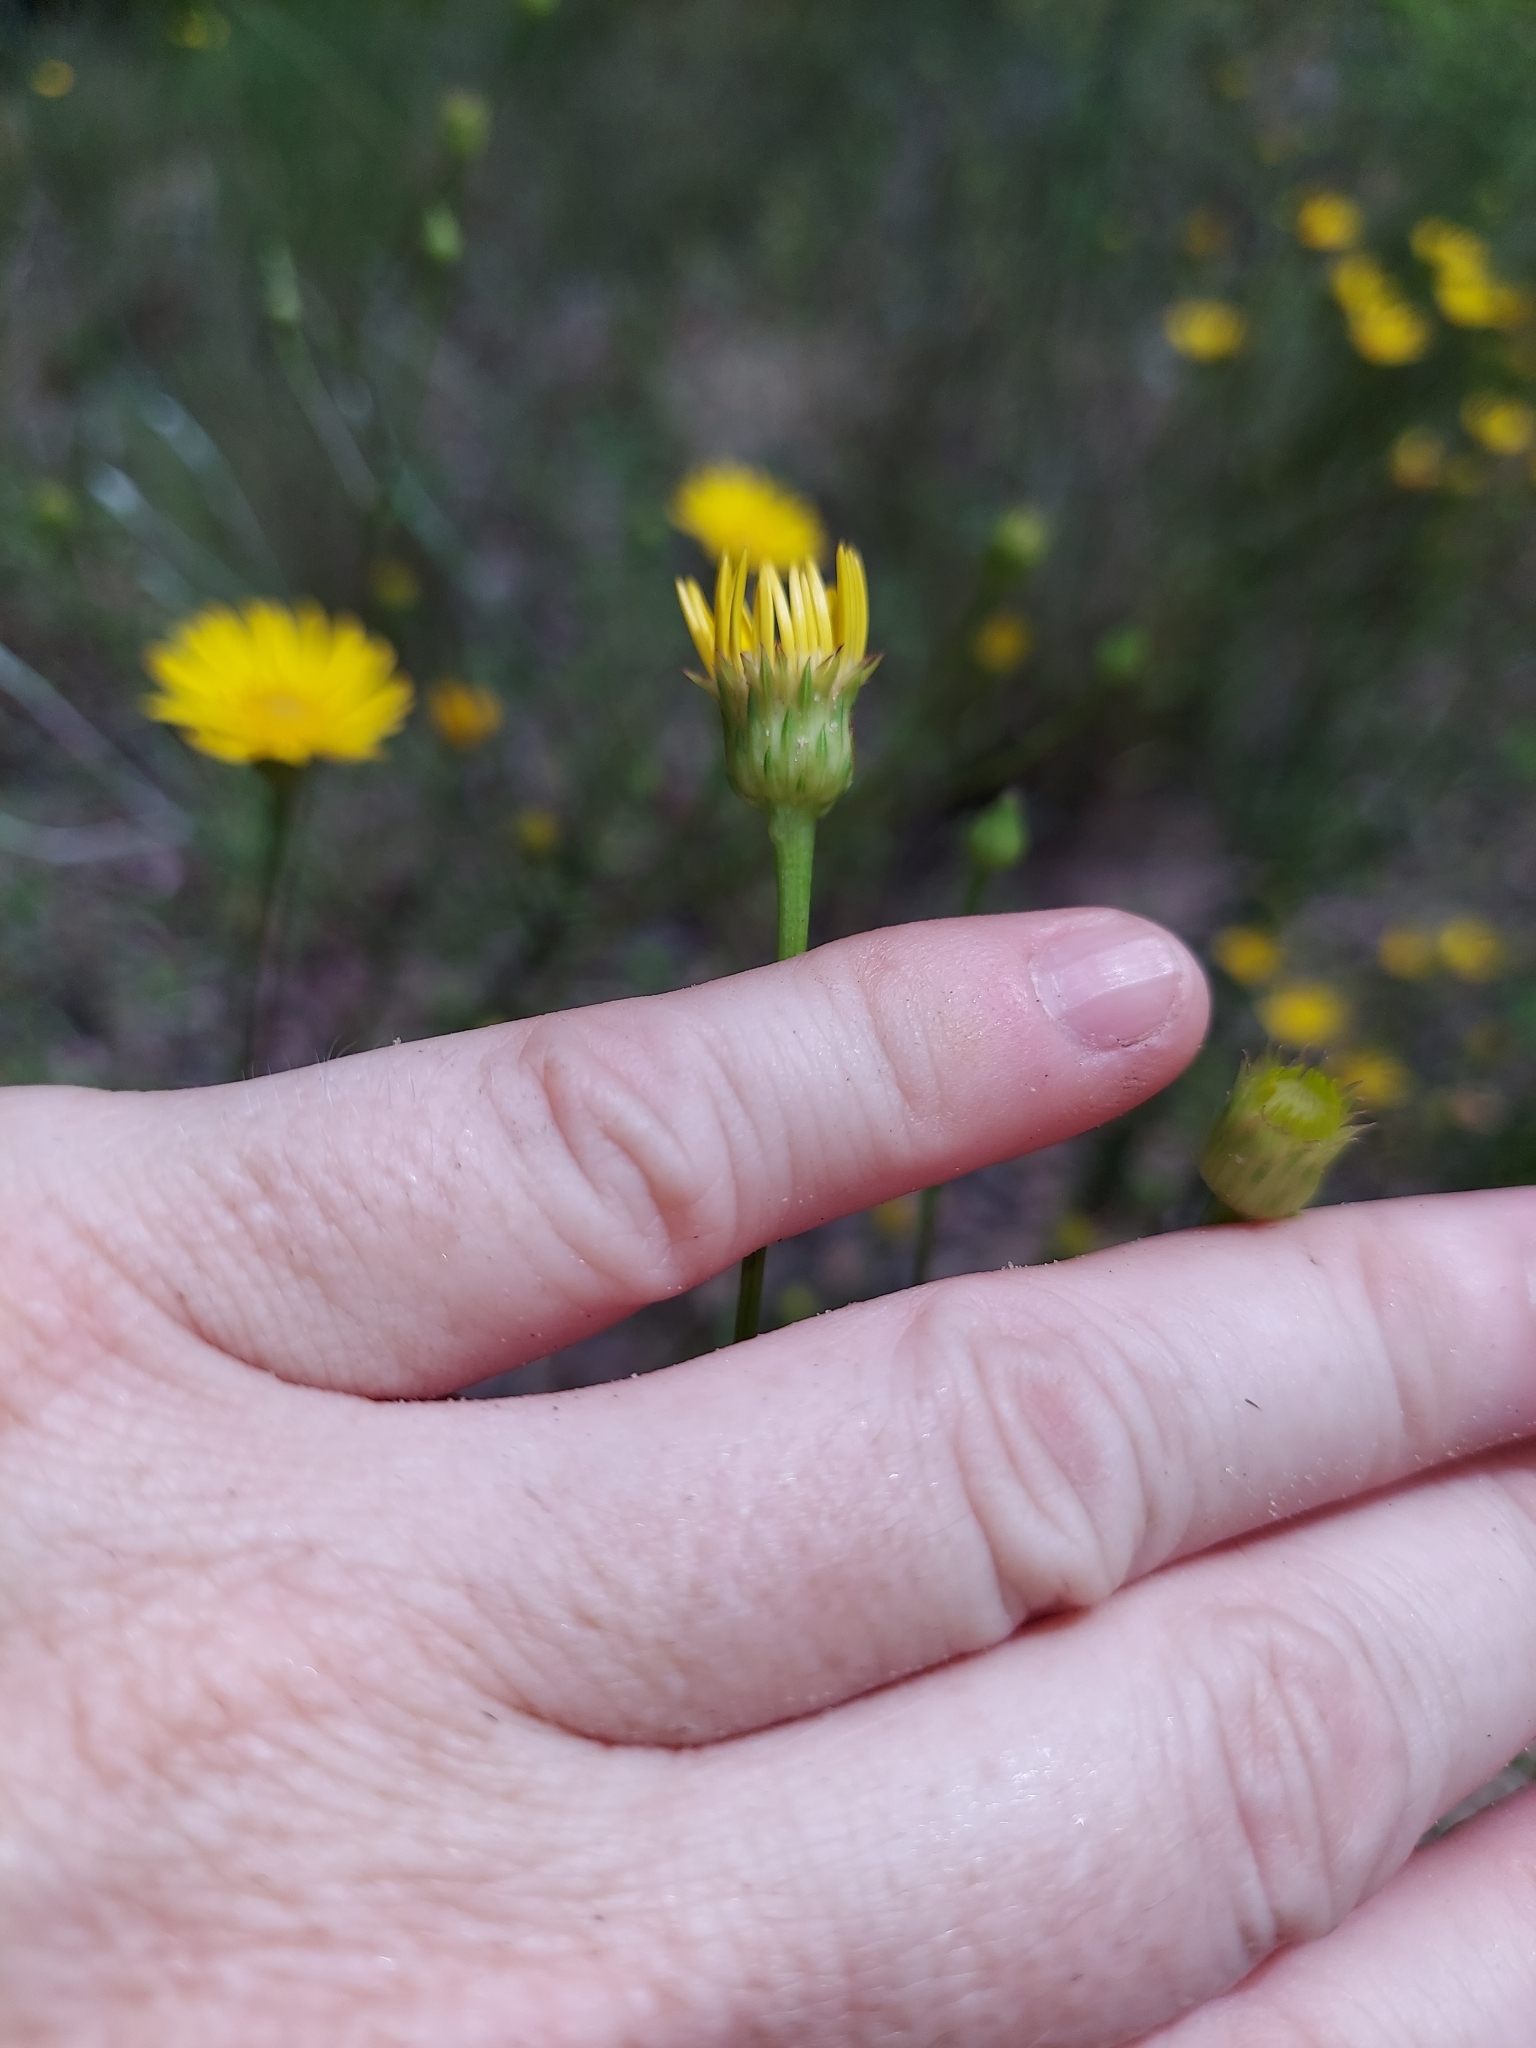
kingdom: Plantae
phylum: Tracheophyta
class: Magnoliopsida
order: Asterales
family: Asteraceae
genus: Chrysopsis
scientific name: Chrysopsis linearifolia
